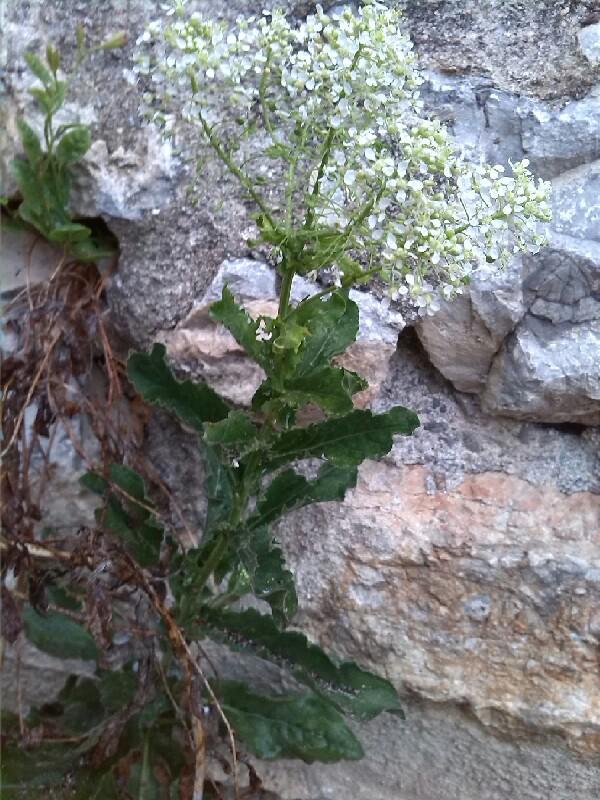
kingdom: Plantae
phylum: Tracheophyta
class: Magnoliopsida
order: Brassicales
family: Brassicaceae
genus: Lepidium
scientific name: Lepidium draba
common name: Hoary cress
